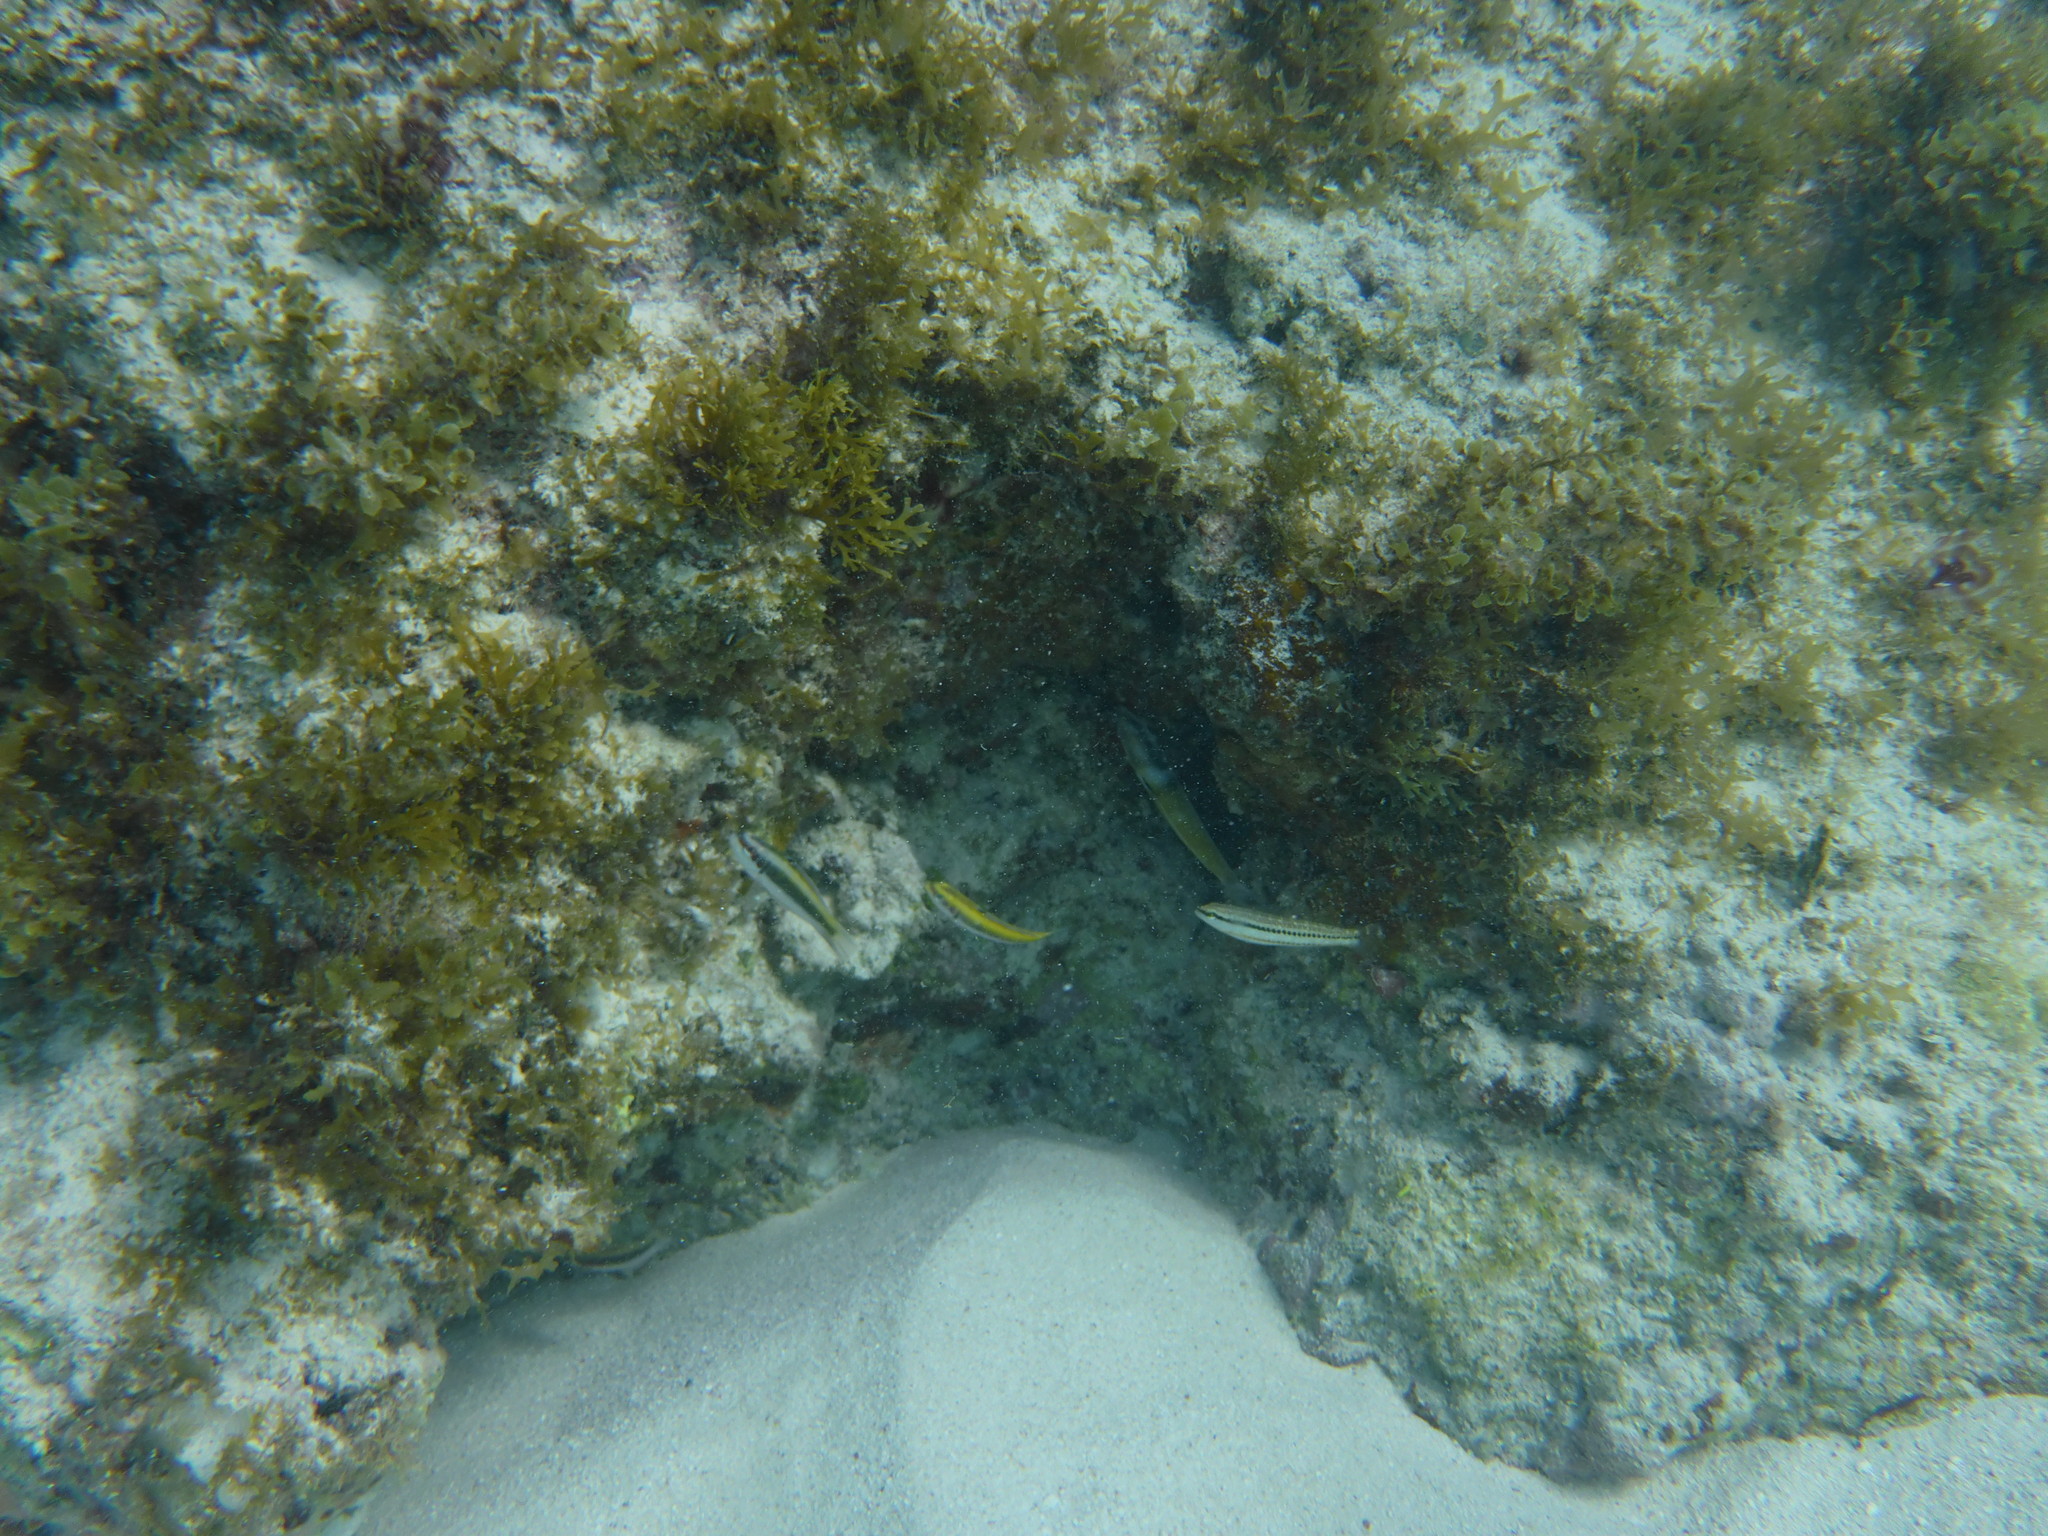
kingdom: Animalia
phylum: Chordata
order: Perciformes
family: Labridae
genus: Thalassoma
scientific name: Thalassoma bifasciatum
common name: Bluehead wrasse
